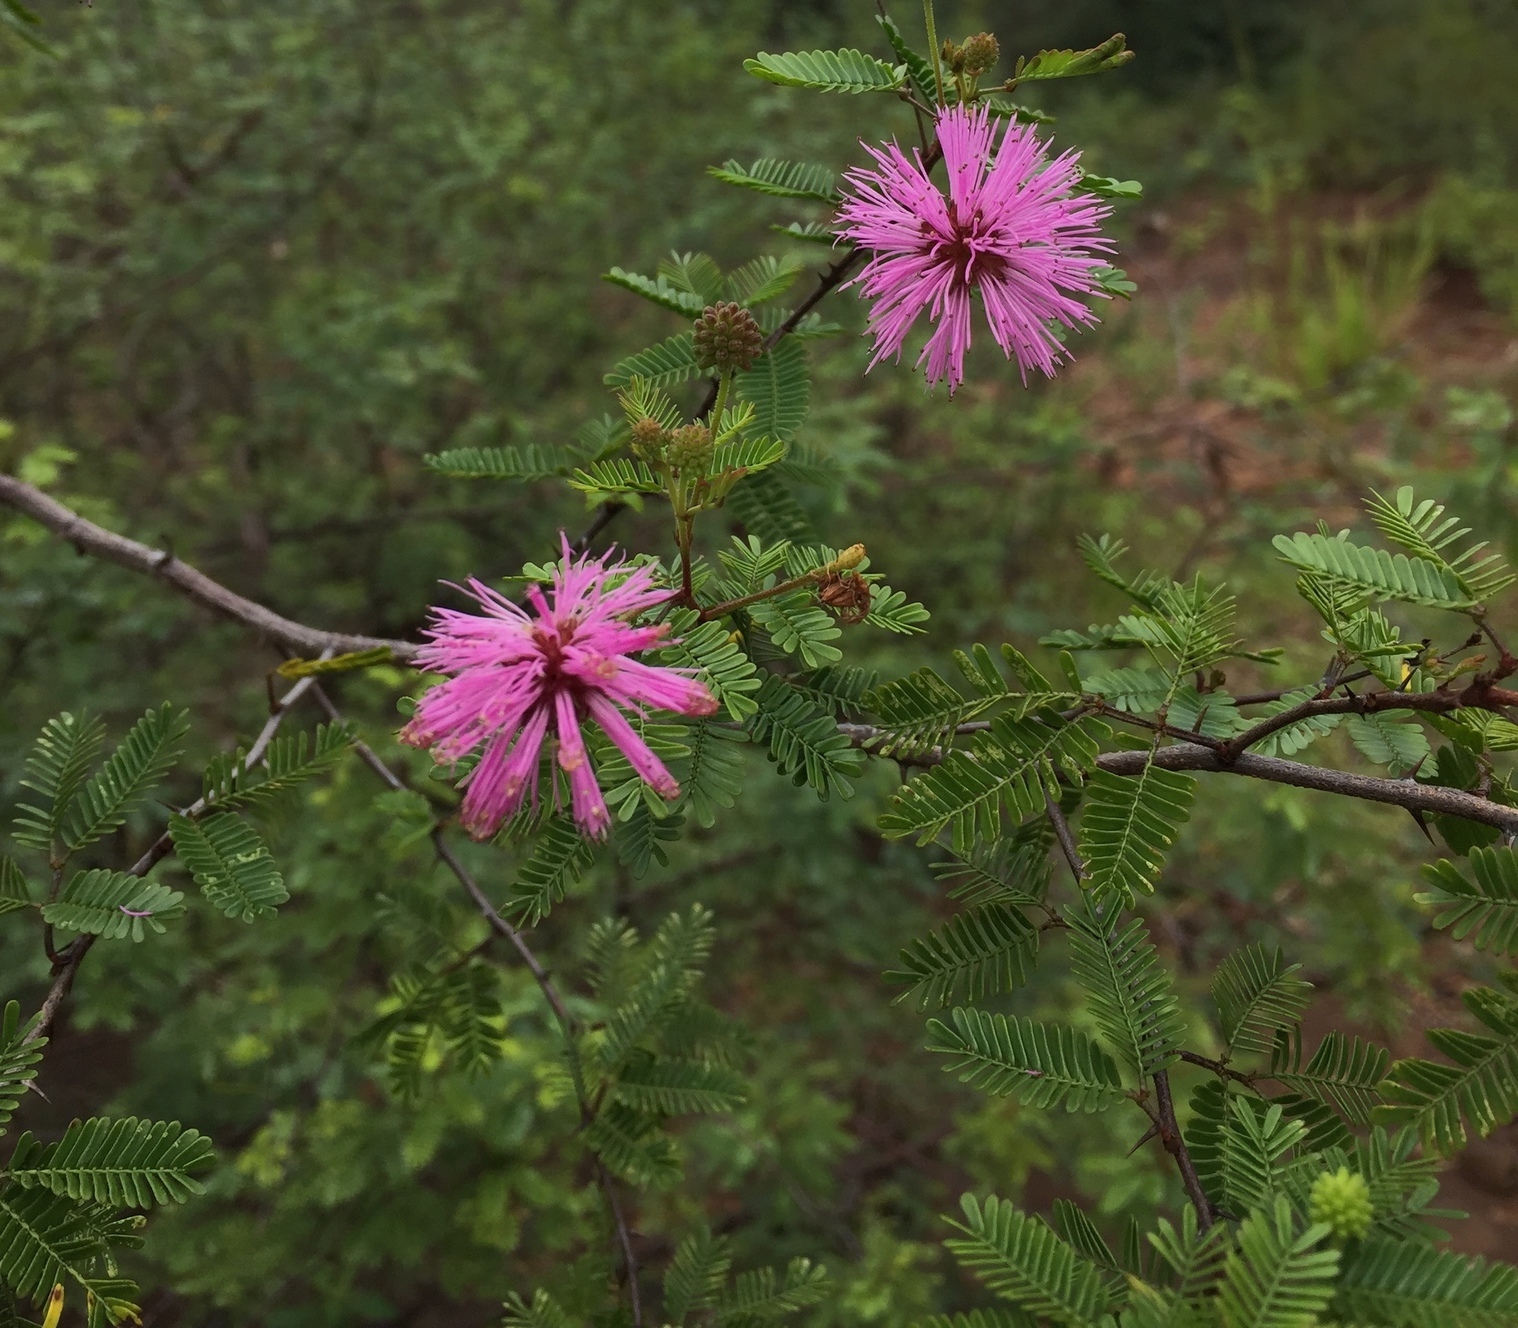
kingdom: Plantae
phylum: Tracheophyta
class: Magnoliopsida
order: Fabales
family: Fabaceae
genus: Mimosa
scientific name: Mimosa uraguensis
